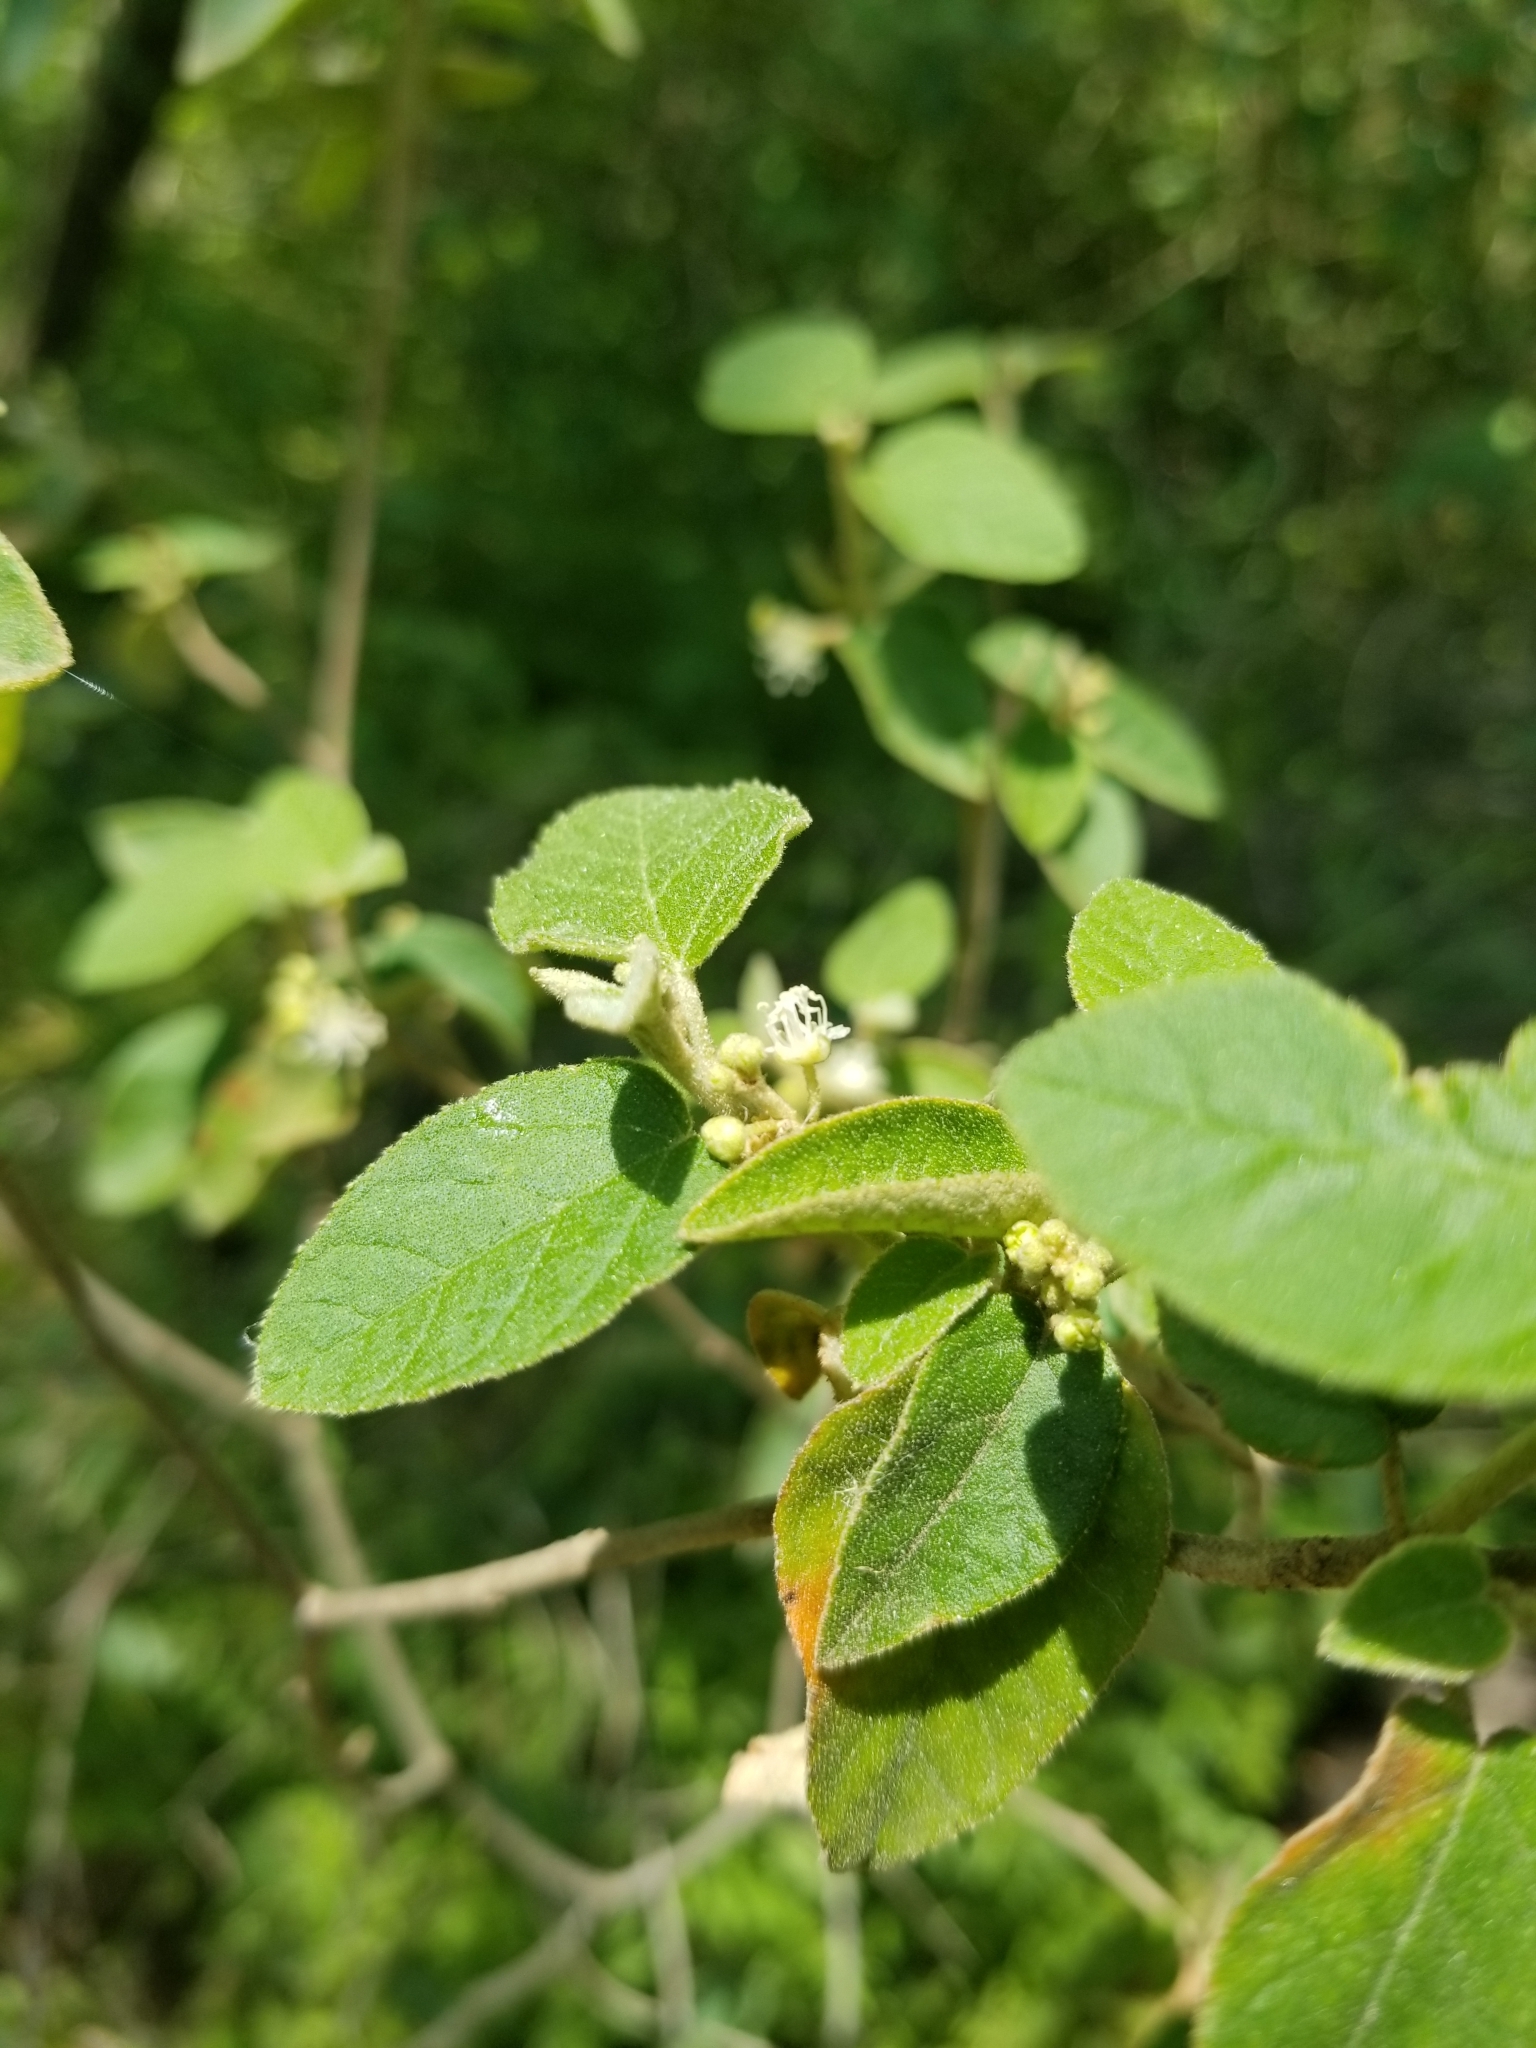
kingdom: Plantae
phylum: Tracheophyta
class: Magnoliopsida
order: Malpighiales
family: Euphorbiaceae
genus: Croton
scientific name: Croton fruticulosus
